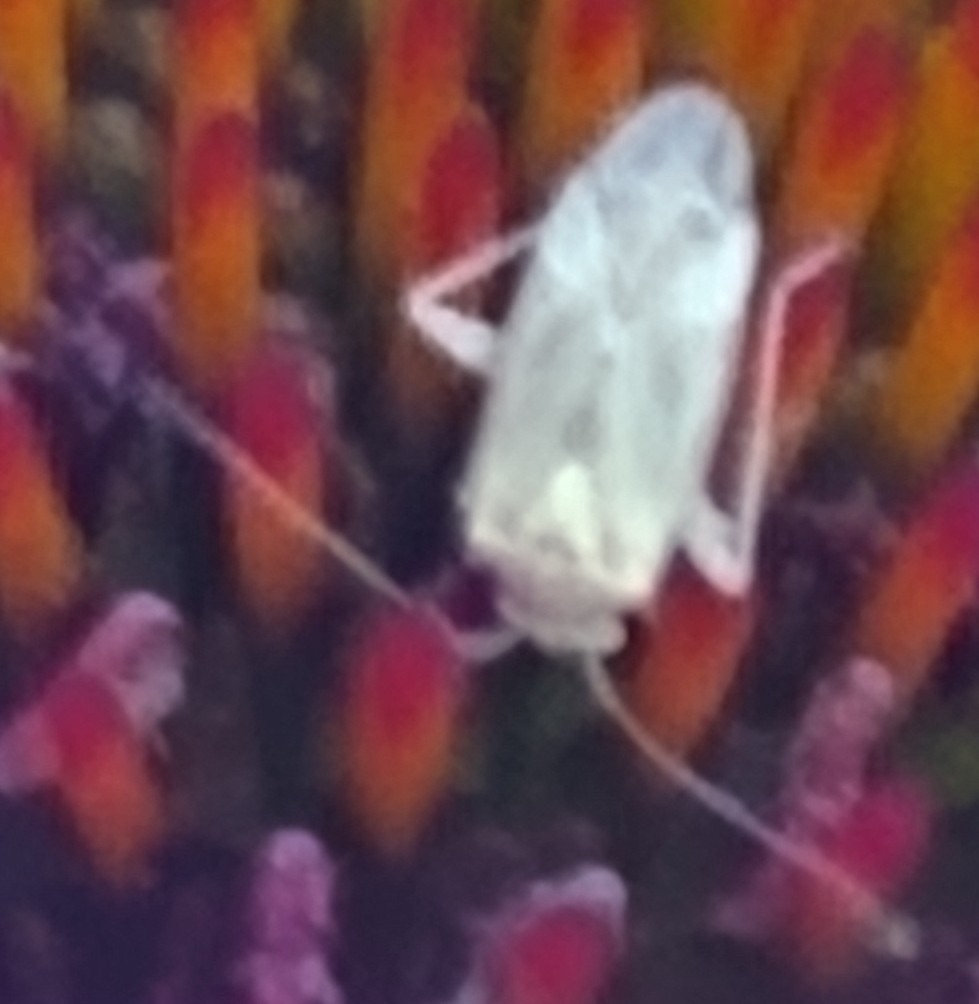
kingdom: Animalia
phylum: Arthropoda
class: Insecta
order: Hemiptera
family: Miridae
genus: Taylorilygus
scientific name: Taylorilygus apicalis
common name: Plant bug
